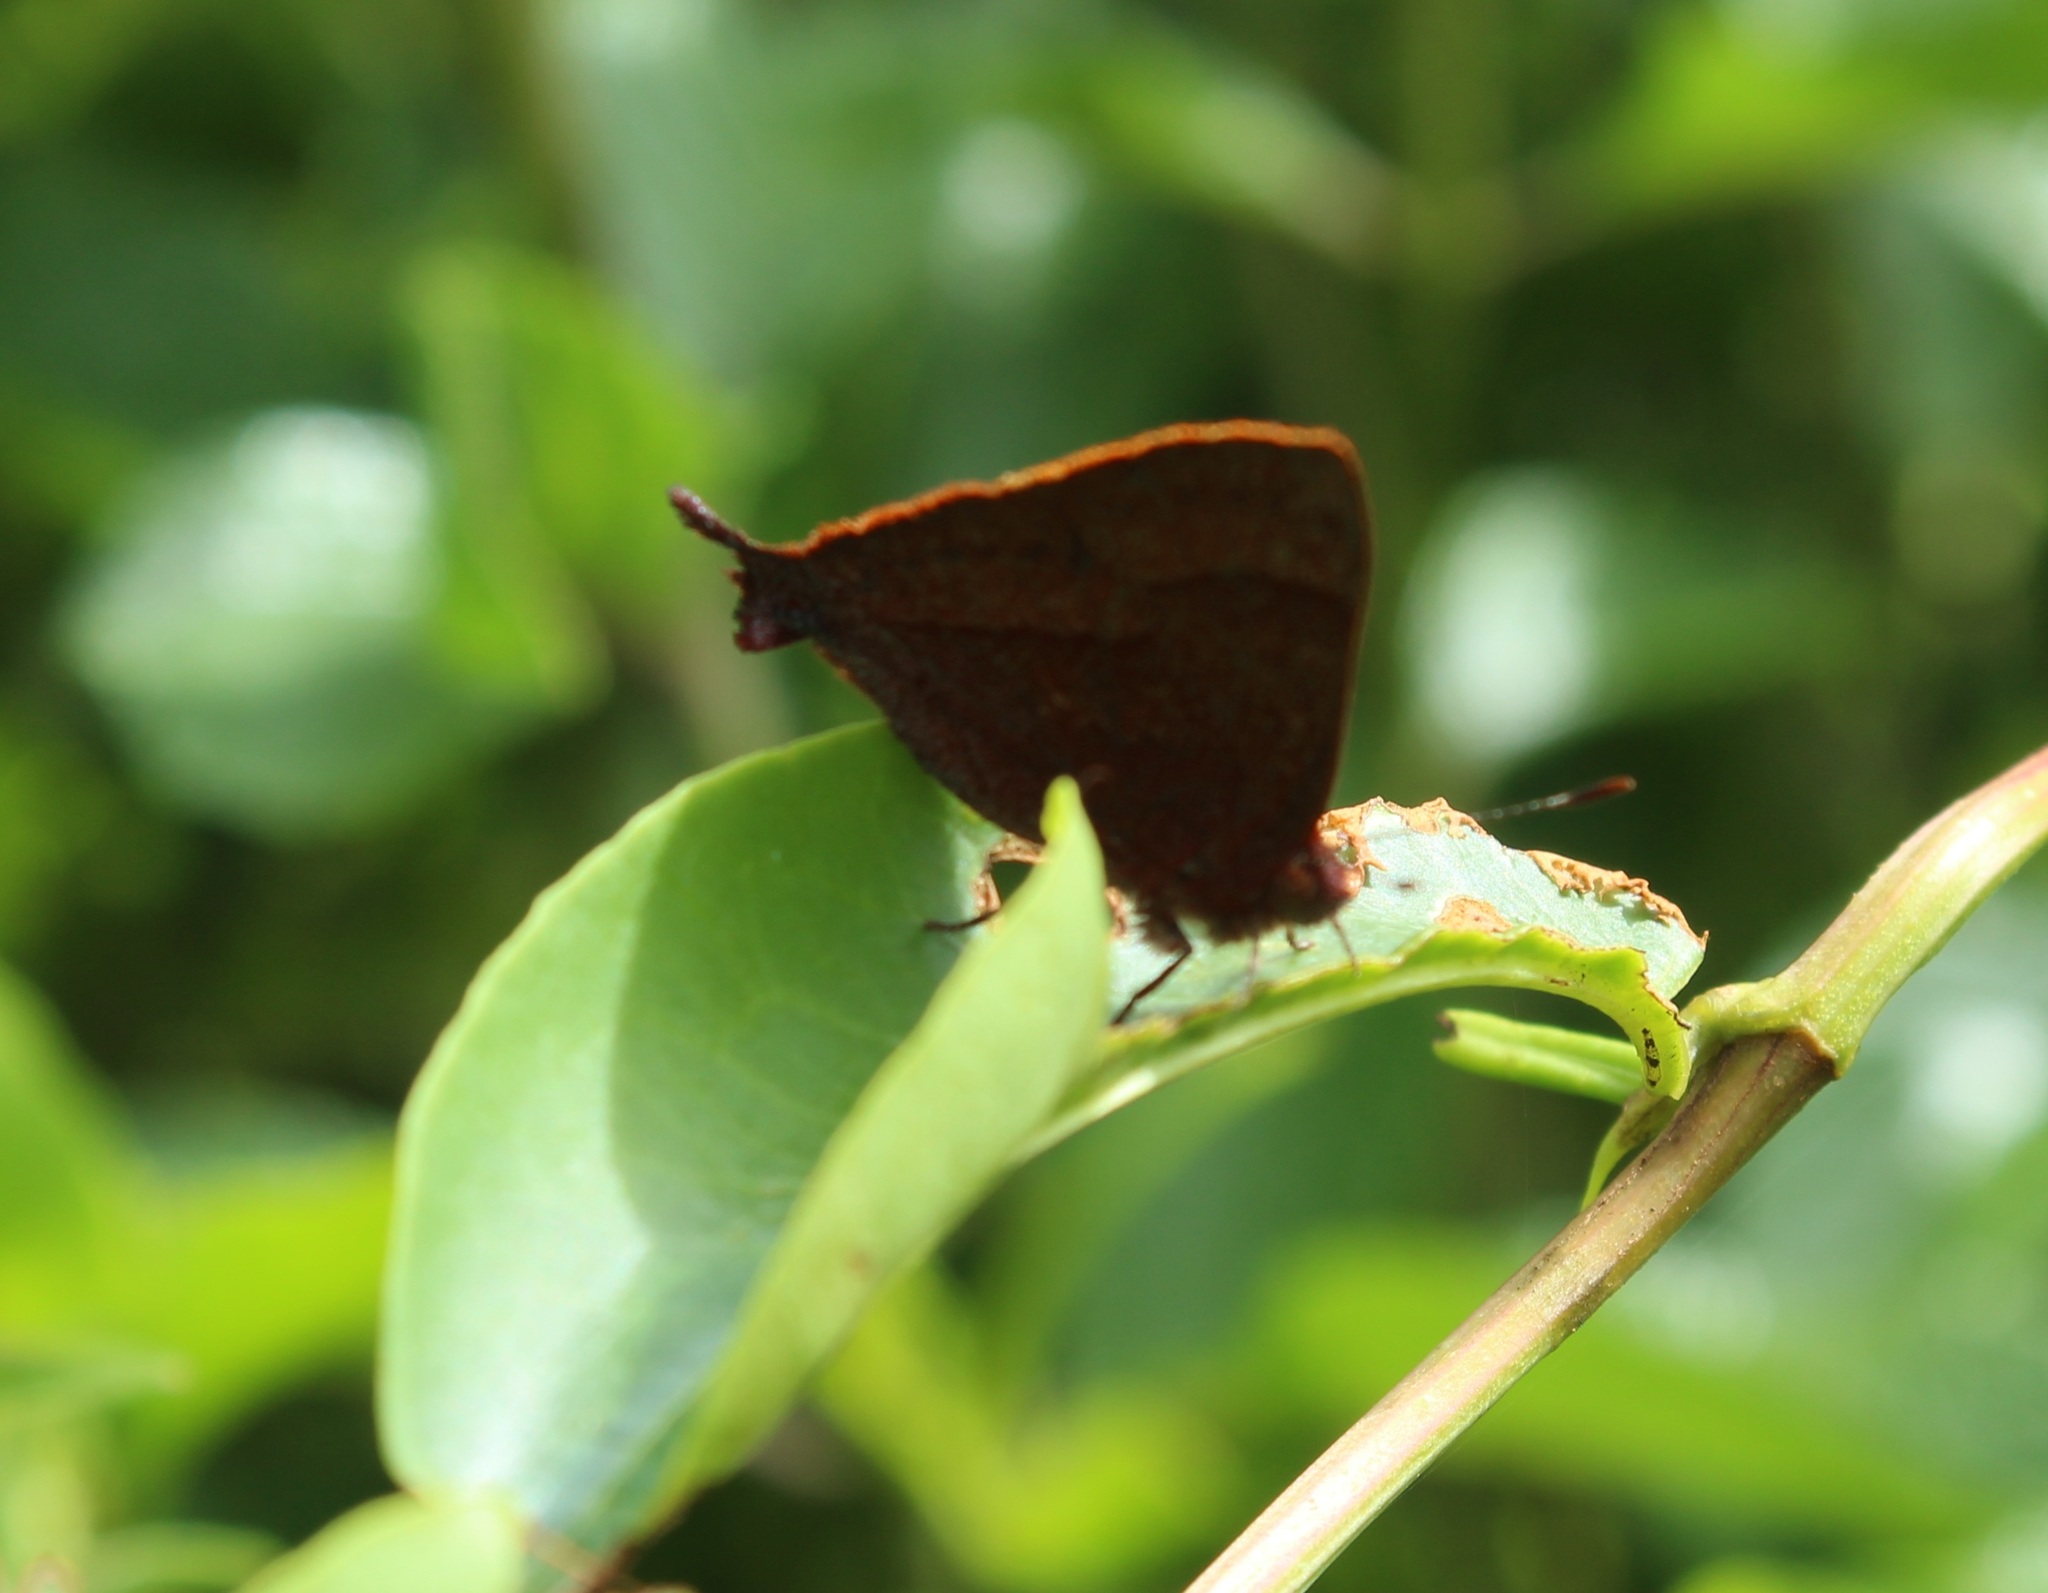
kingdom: Animalia
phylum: Arthropoda
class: Insecta
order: Lepidoptera
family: Lycaenidae
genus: Penaincisalia
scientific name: Penaincisalia loxurina
